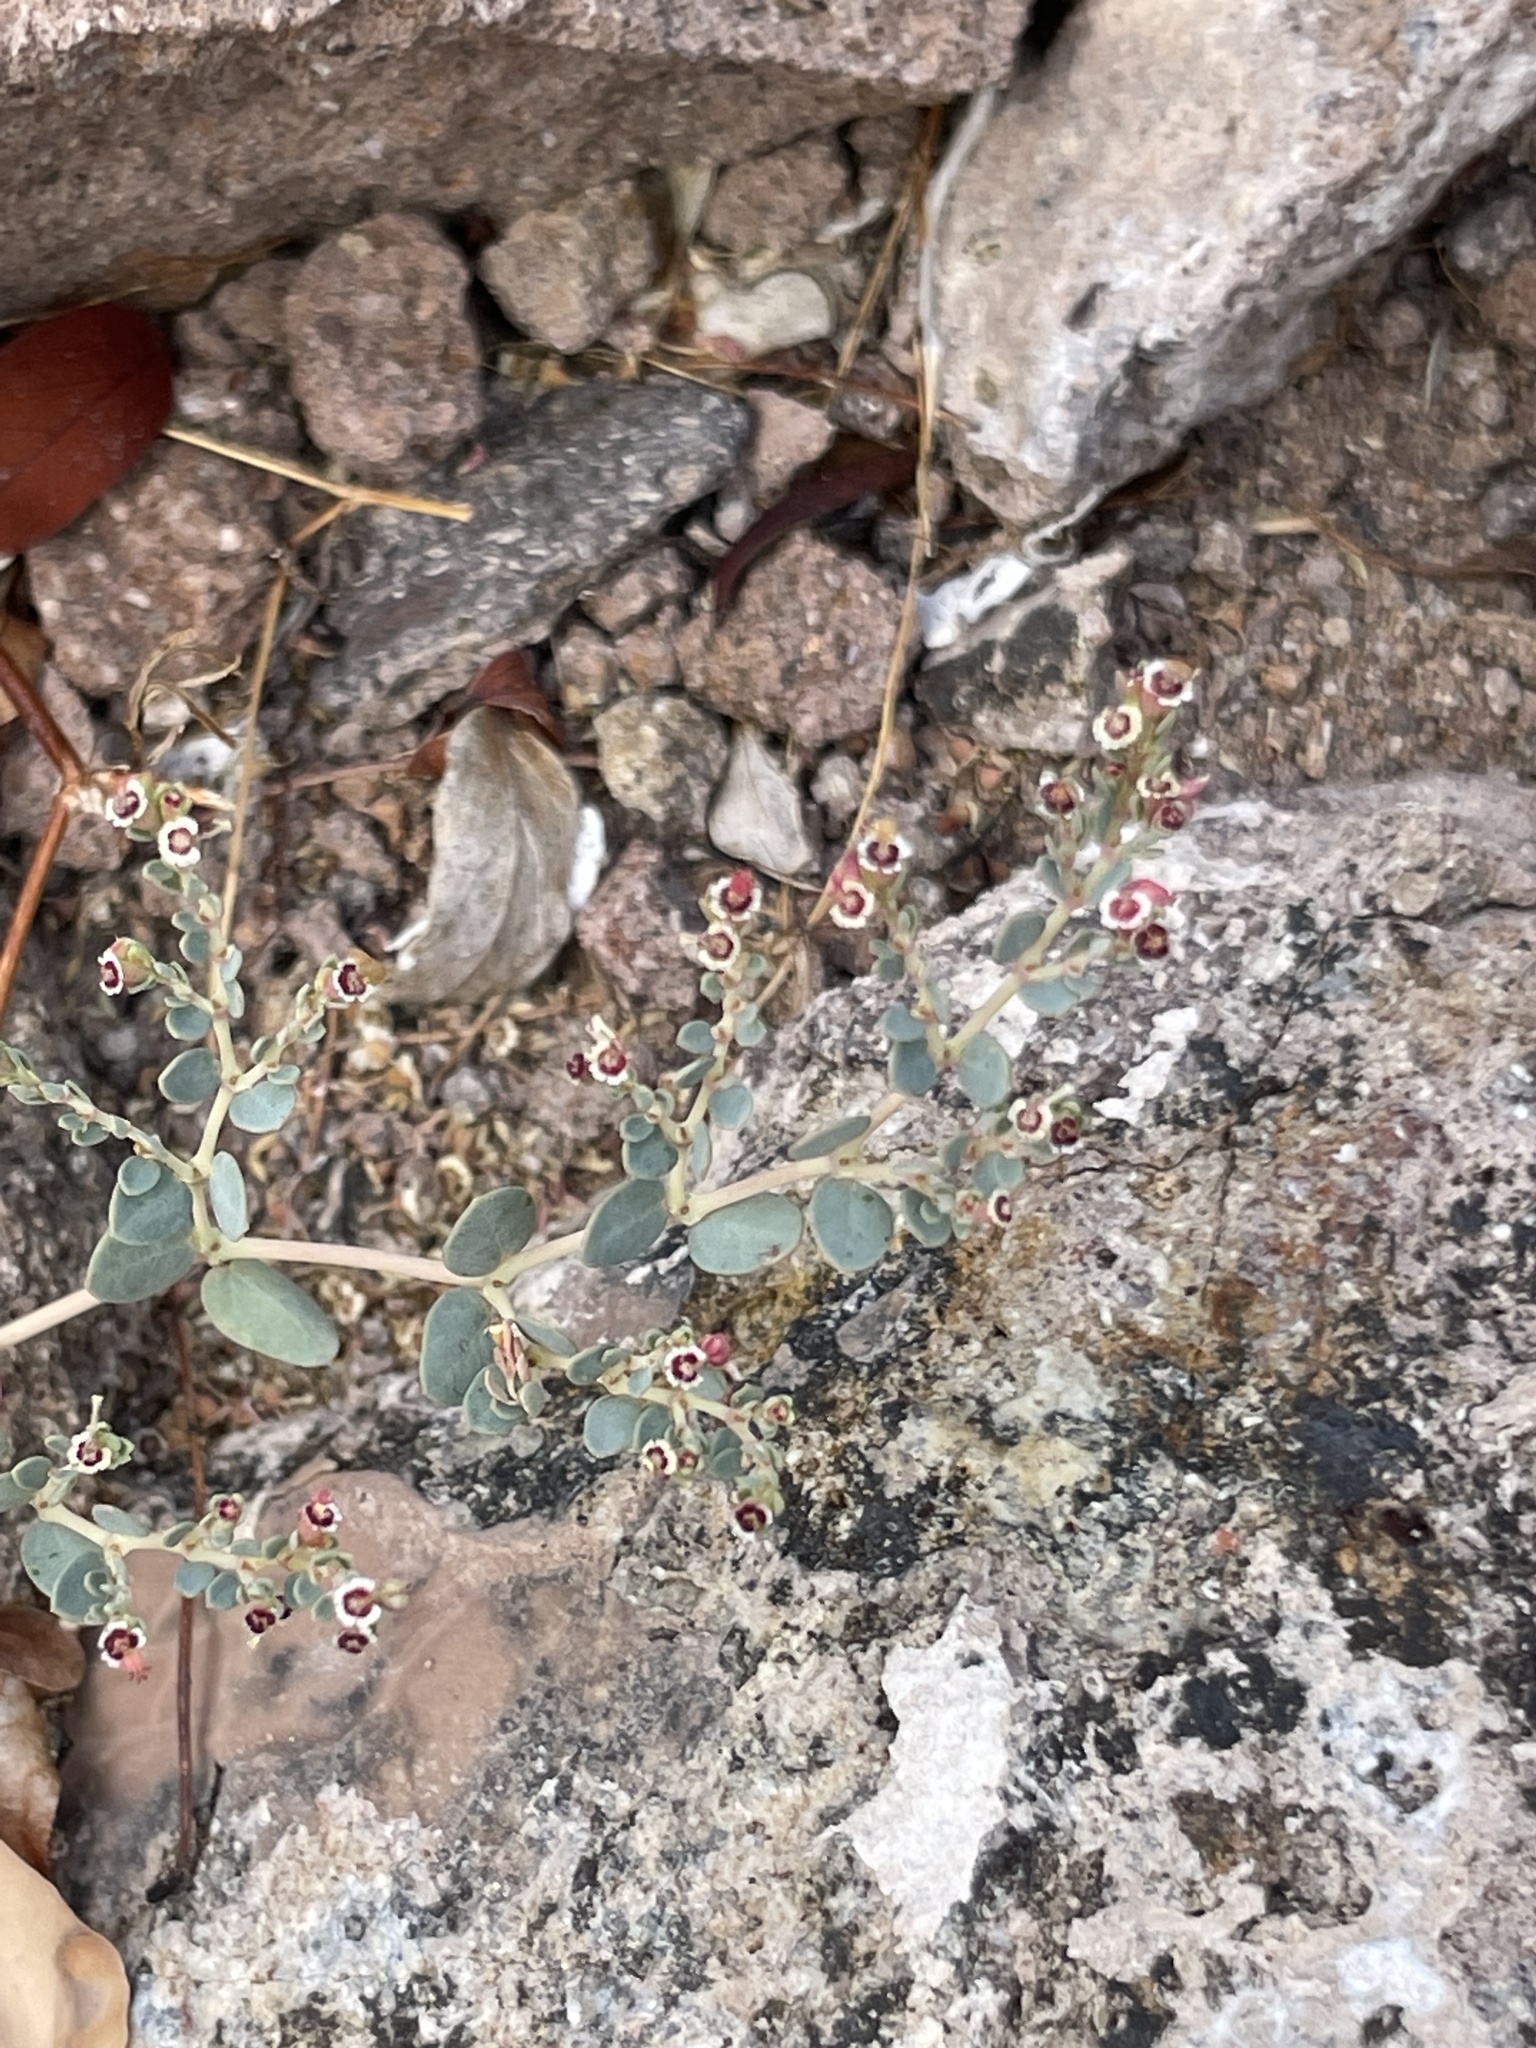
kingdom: Plantae
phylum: Tracheophyta
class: Magnoliopsida
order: Malpighiales
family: Euphorbiaceae
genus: Euphorbia
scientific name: Euphorbia polycarpa
